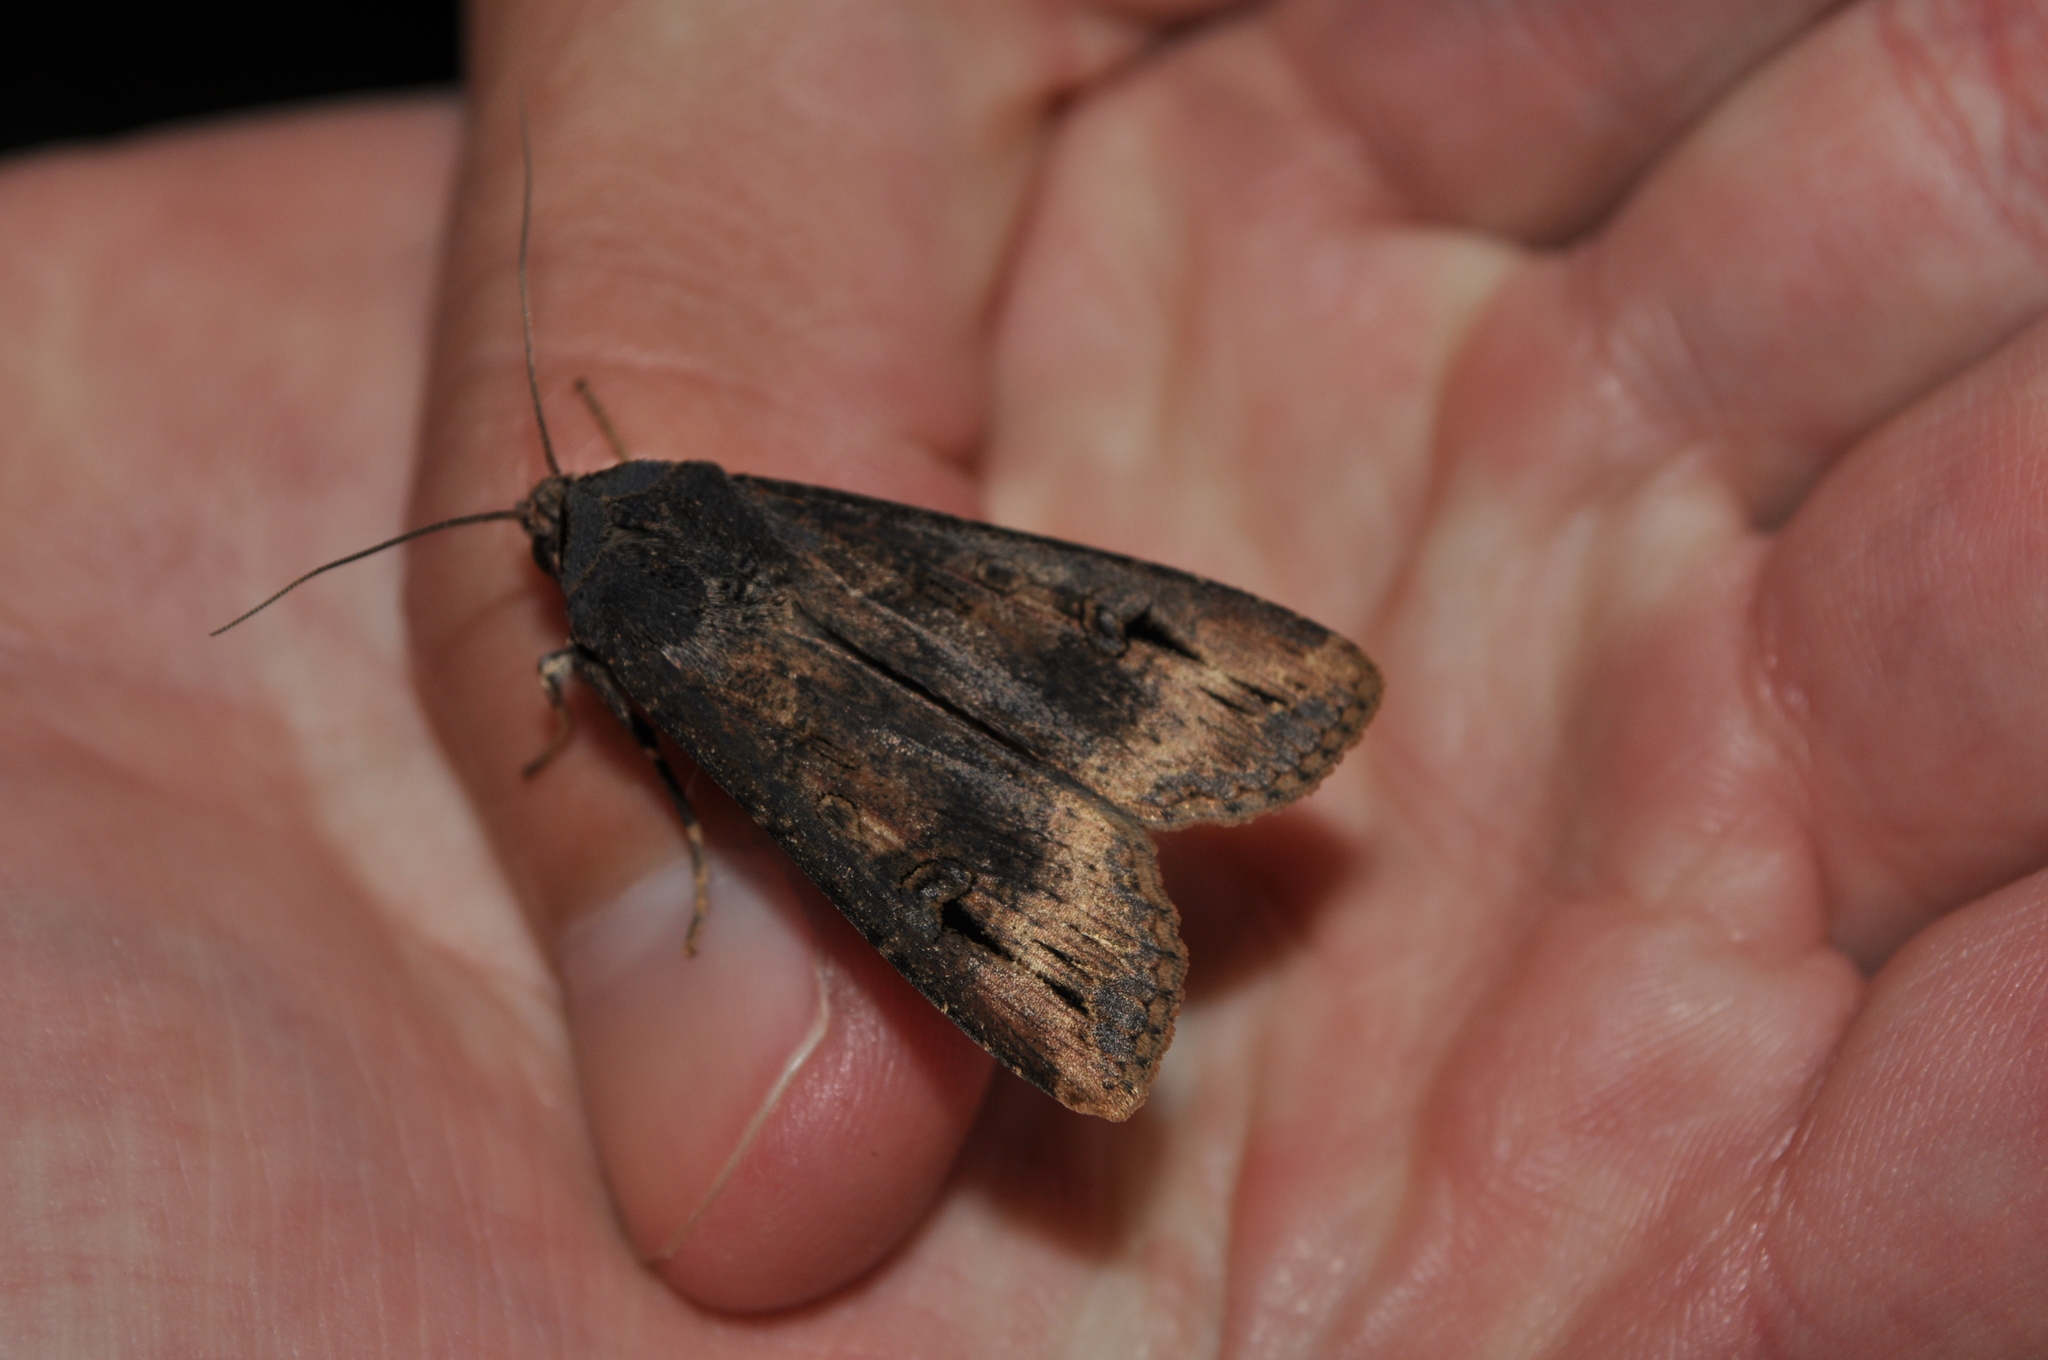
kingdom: Animalia
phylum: Arthropoda
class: Insecta
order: Lepidoptera
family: Noctuidae
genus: Agrotis
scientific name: Agrotis ipsilon
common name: Dark sword-grass
